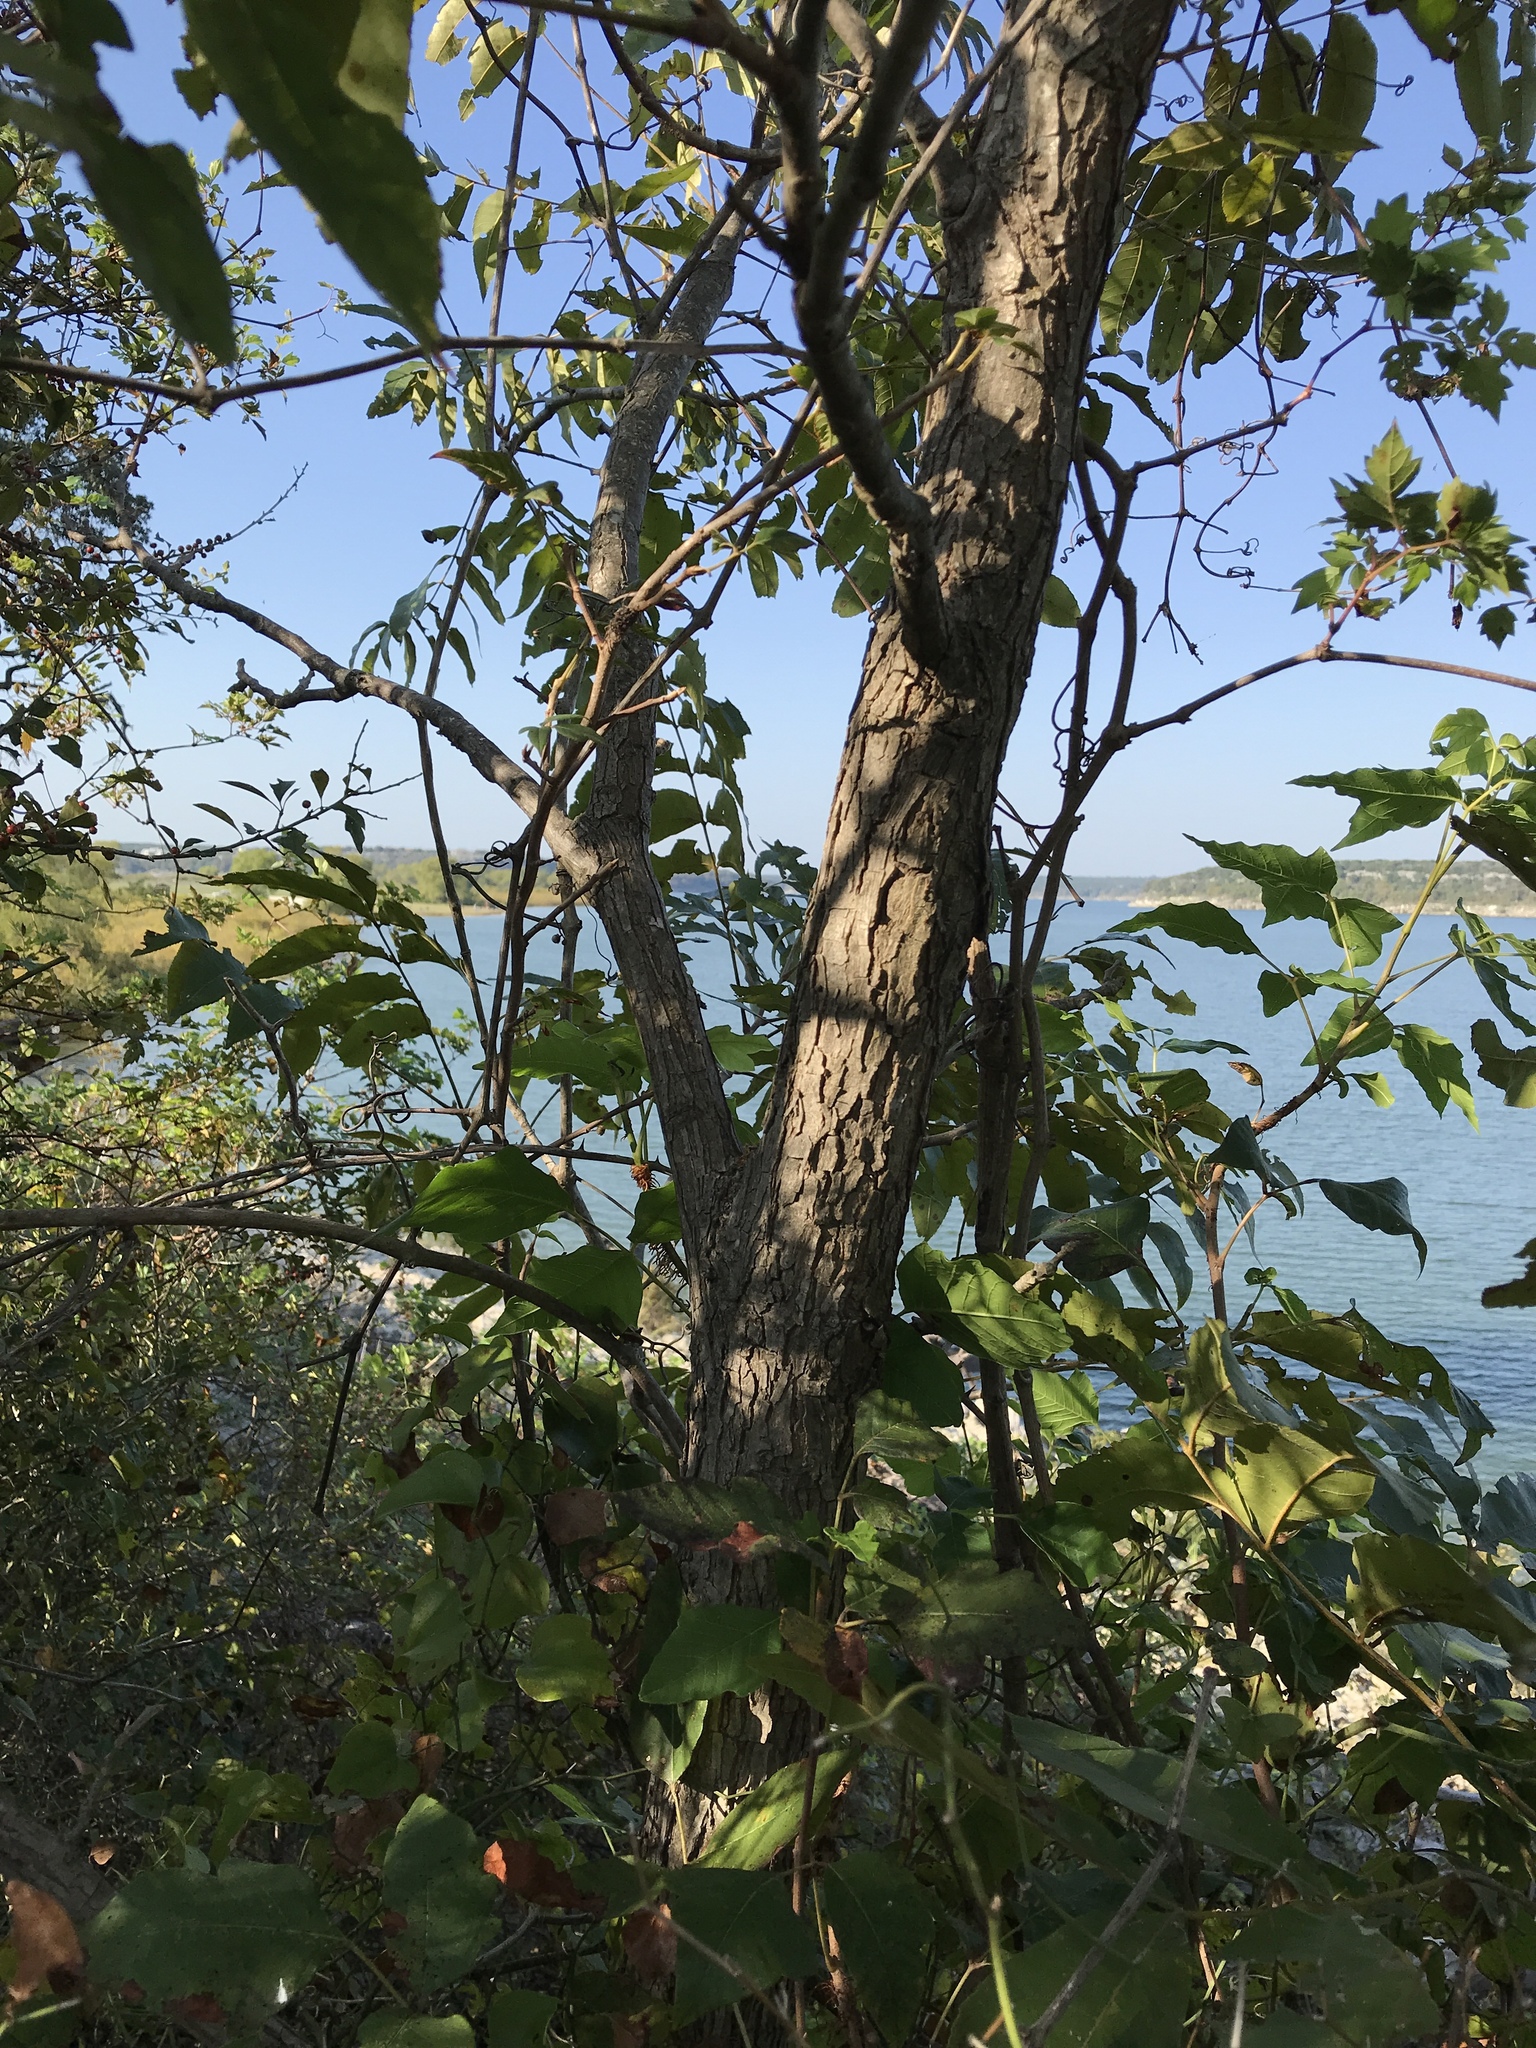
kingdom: Plantae
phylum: Tracheophyta
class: Magnoliopsida
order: Fagales
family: Juglandaceae
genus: Carya
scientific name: Carya illinoinensis
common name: Pecan
